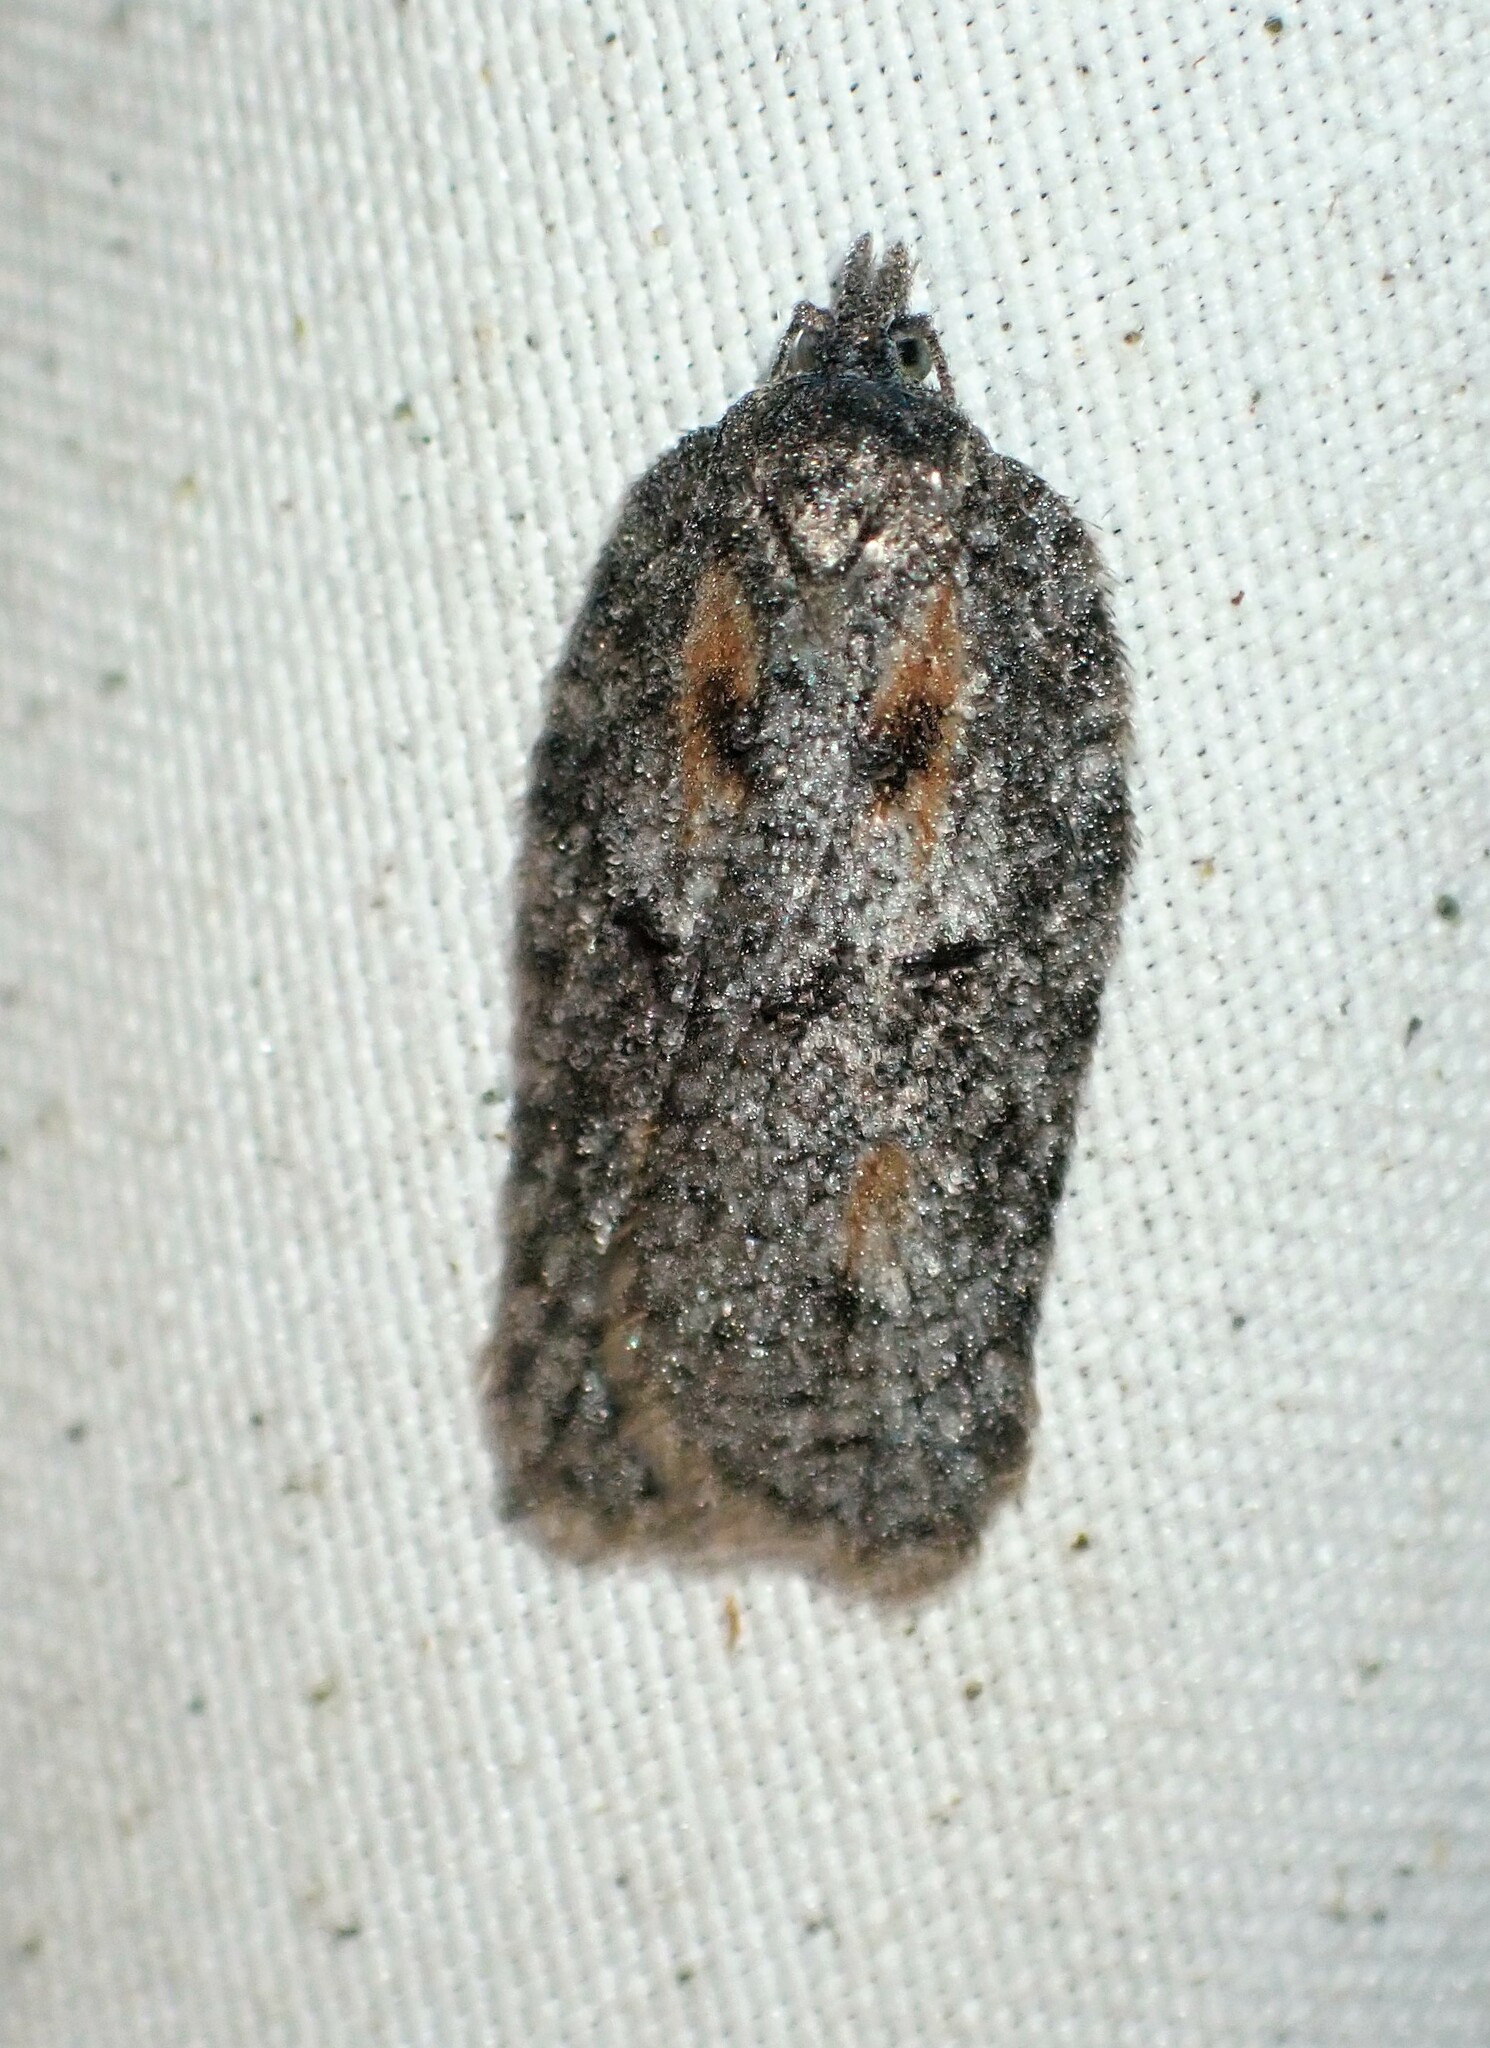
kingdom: Animalia
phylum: Arthropoda
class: Insecta
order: Lepidoptera
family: Tortricidae
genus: Acleris
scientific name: Acleris nigrolinea
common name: Black-lined acleris
